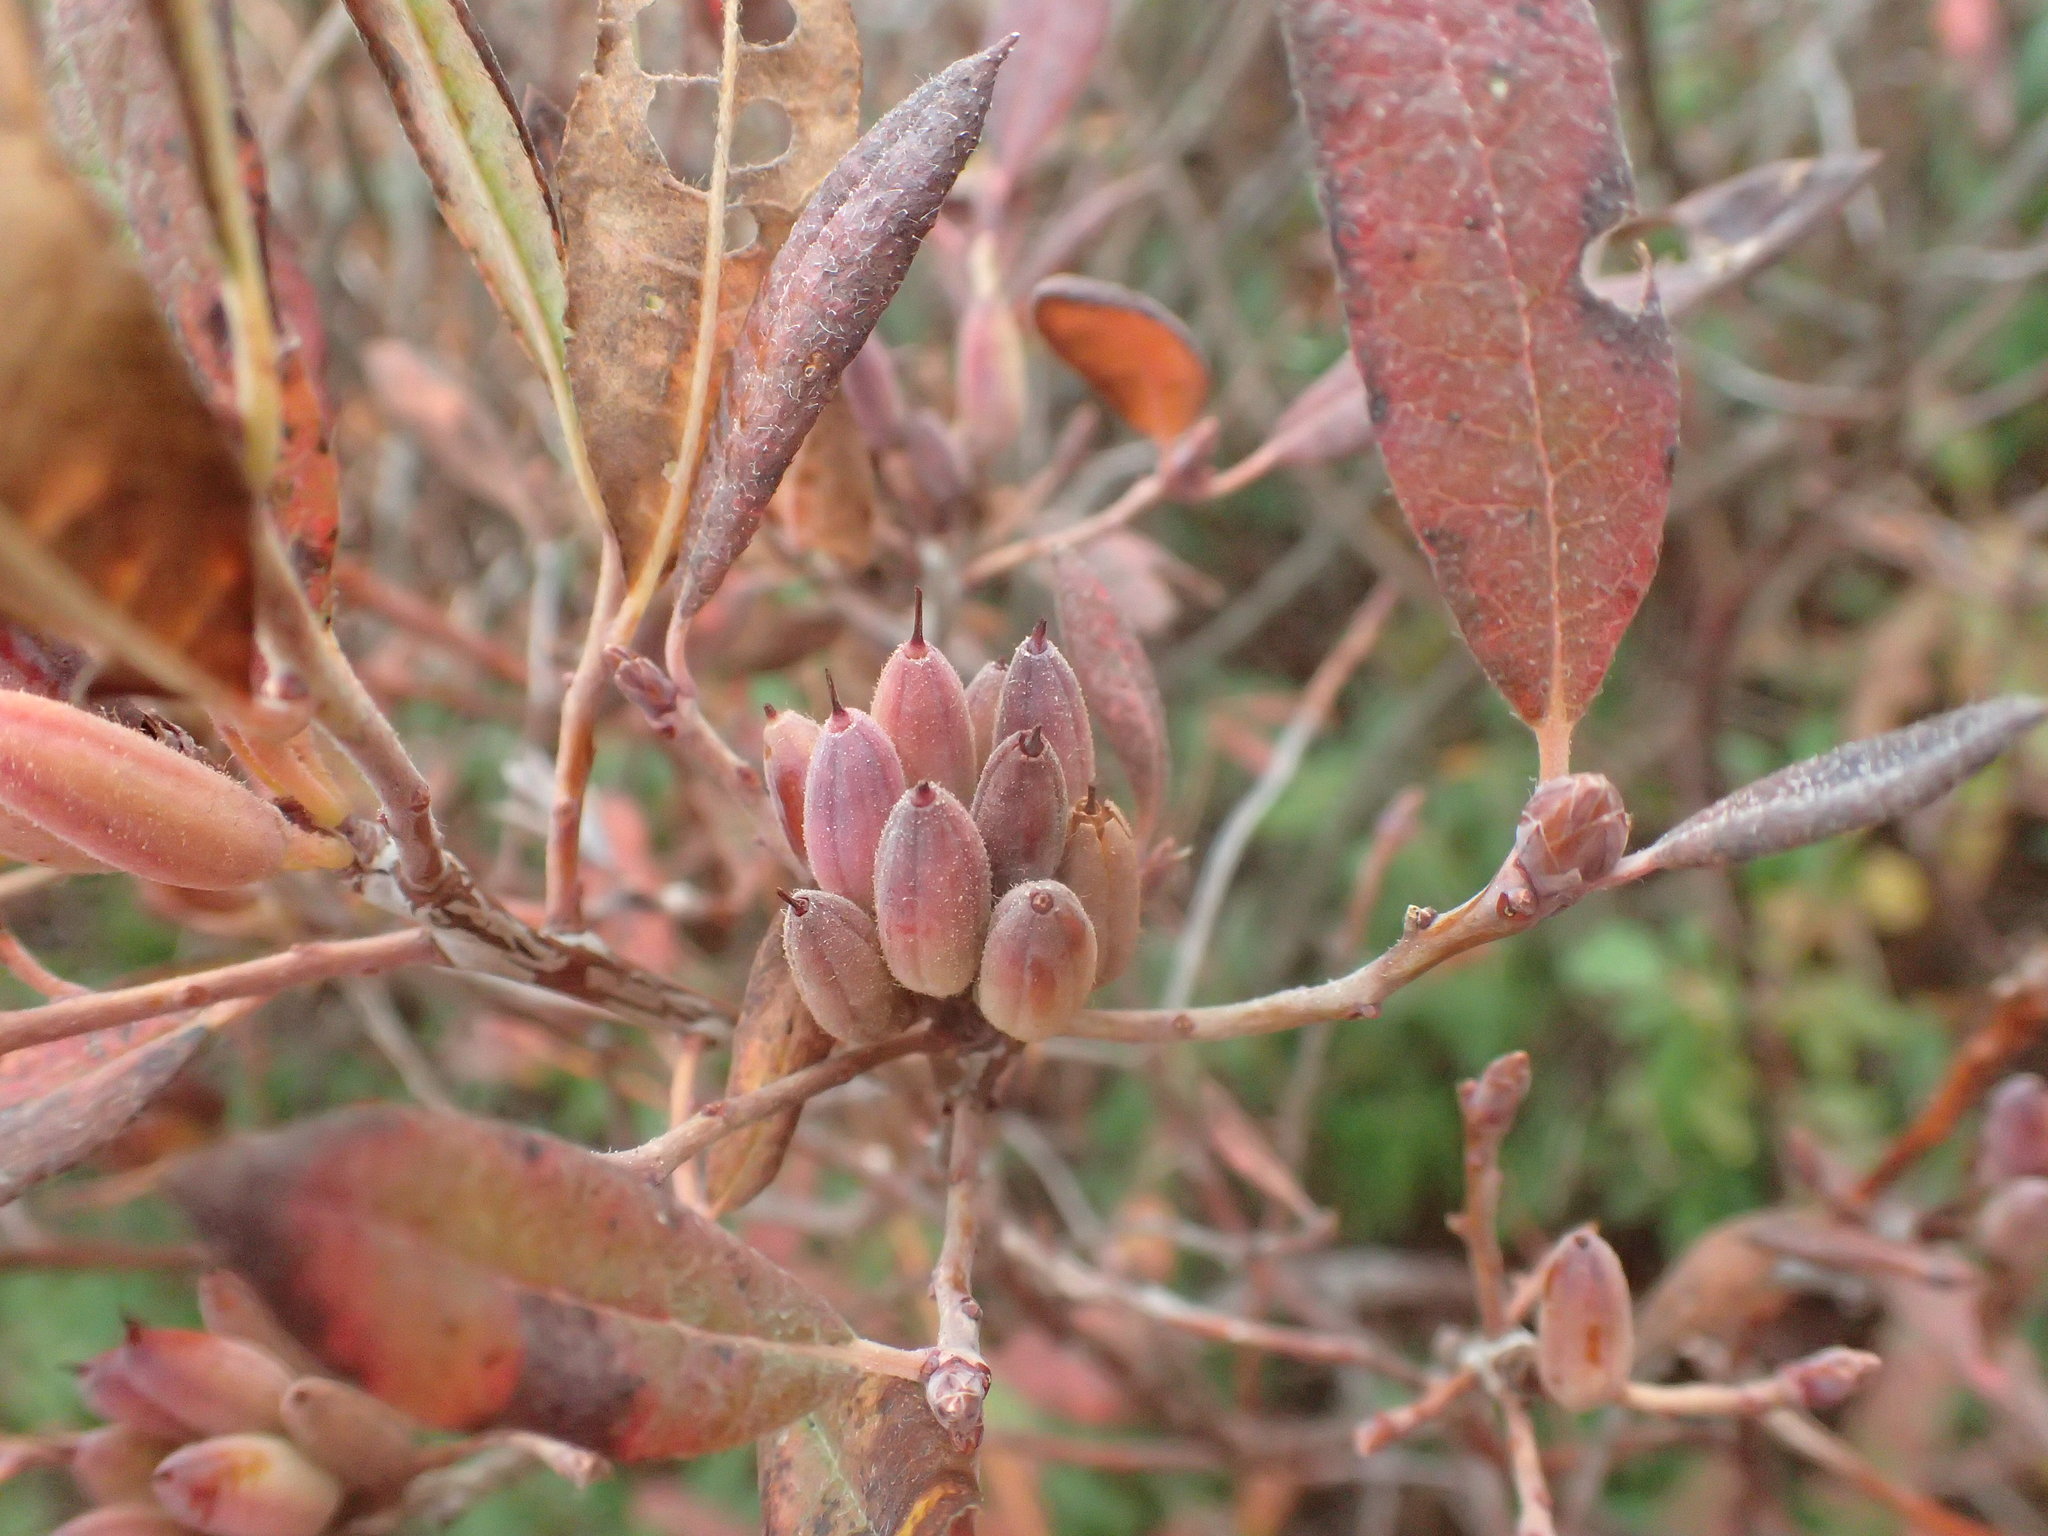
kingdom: Plantae
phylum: Tracheophyta
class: Magnoliopsida
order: Ericales
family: Ericaceae
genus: Rhododendron
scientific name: Rhododendron canadense
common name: Rhodora
